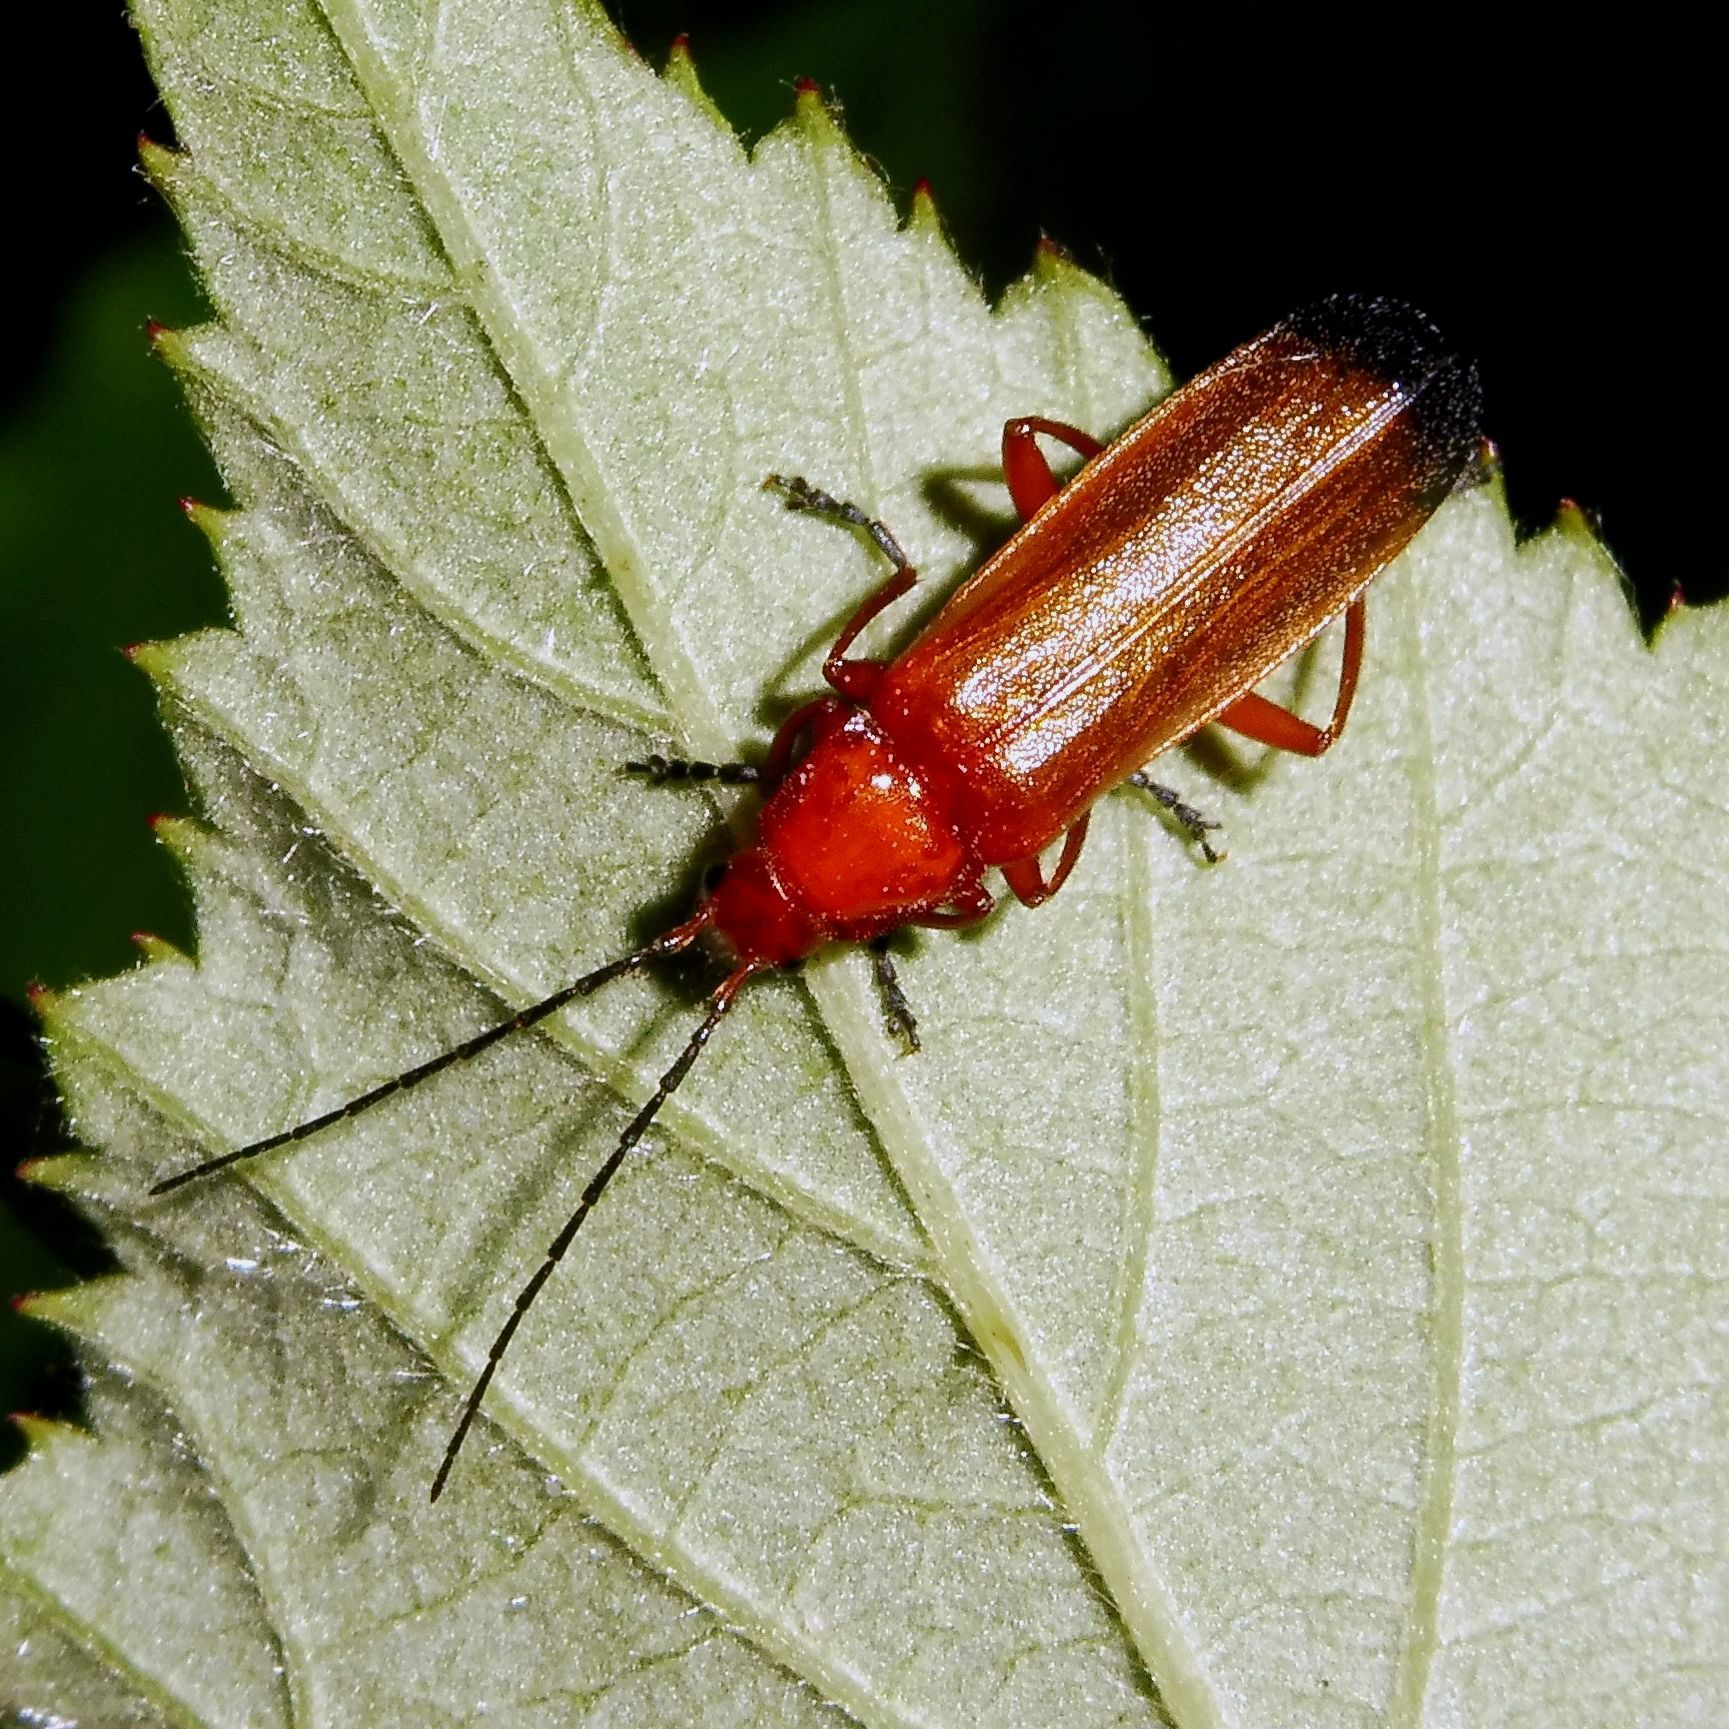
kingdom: Animalia
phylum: Arthropoda
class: Insecta
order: Coleoptera
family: Cantharidae
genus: Rhagonycha
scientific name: Rhagonycha fulva
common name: Common red soldier beetle
